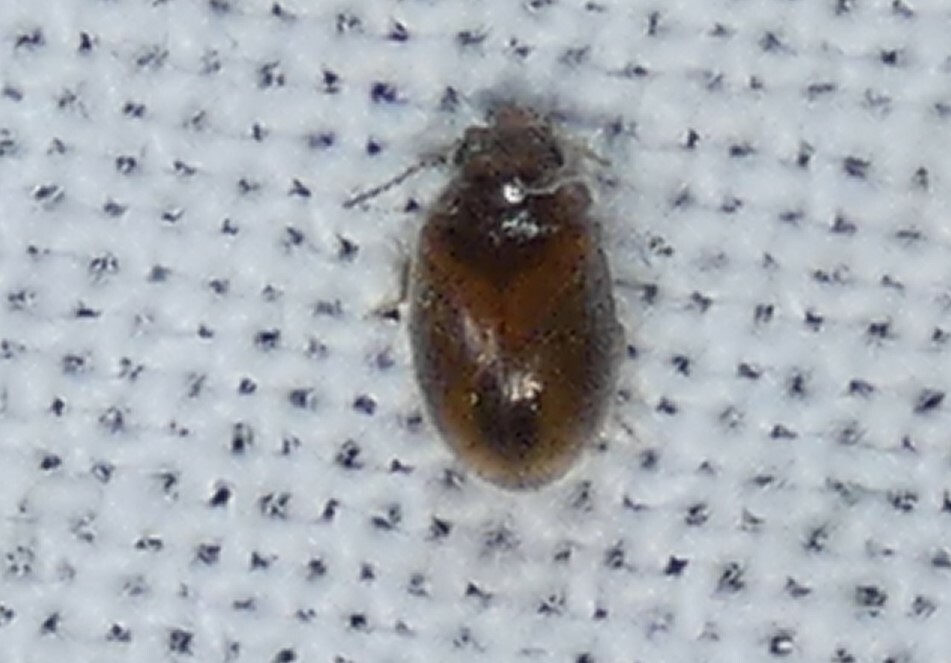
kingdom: Animalia
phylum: Arthropoda
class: Insecta
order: Coleoptera
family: Scirtidae
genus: Contacyphon
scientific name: Contacyphon
